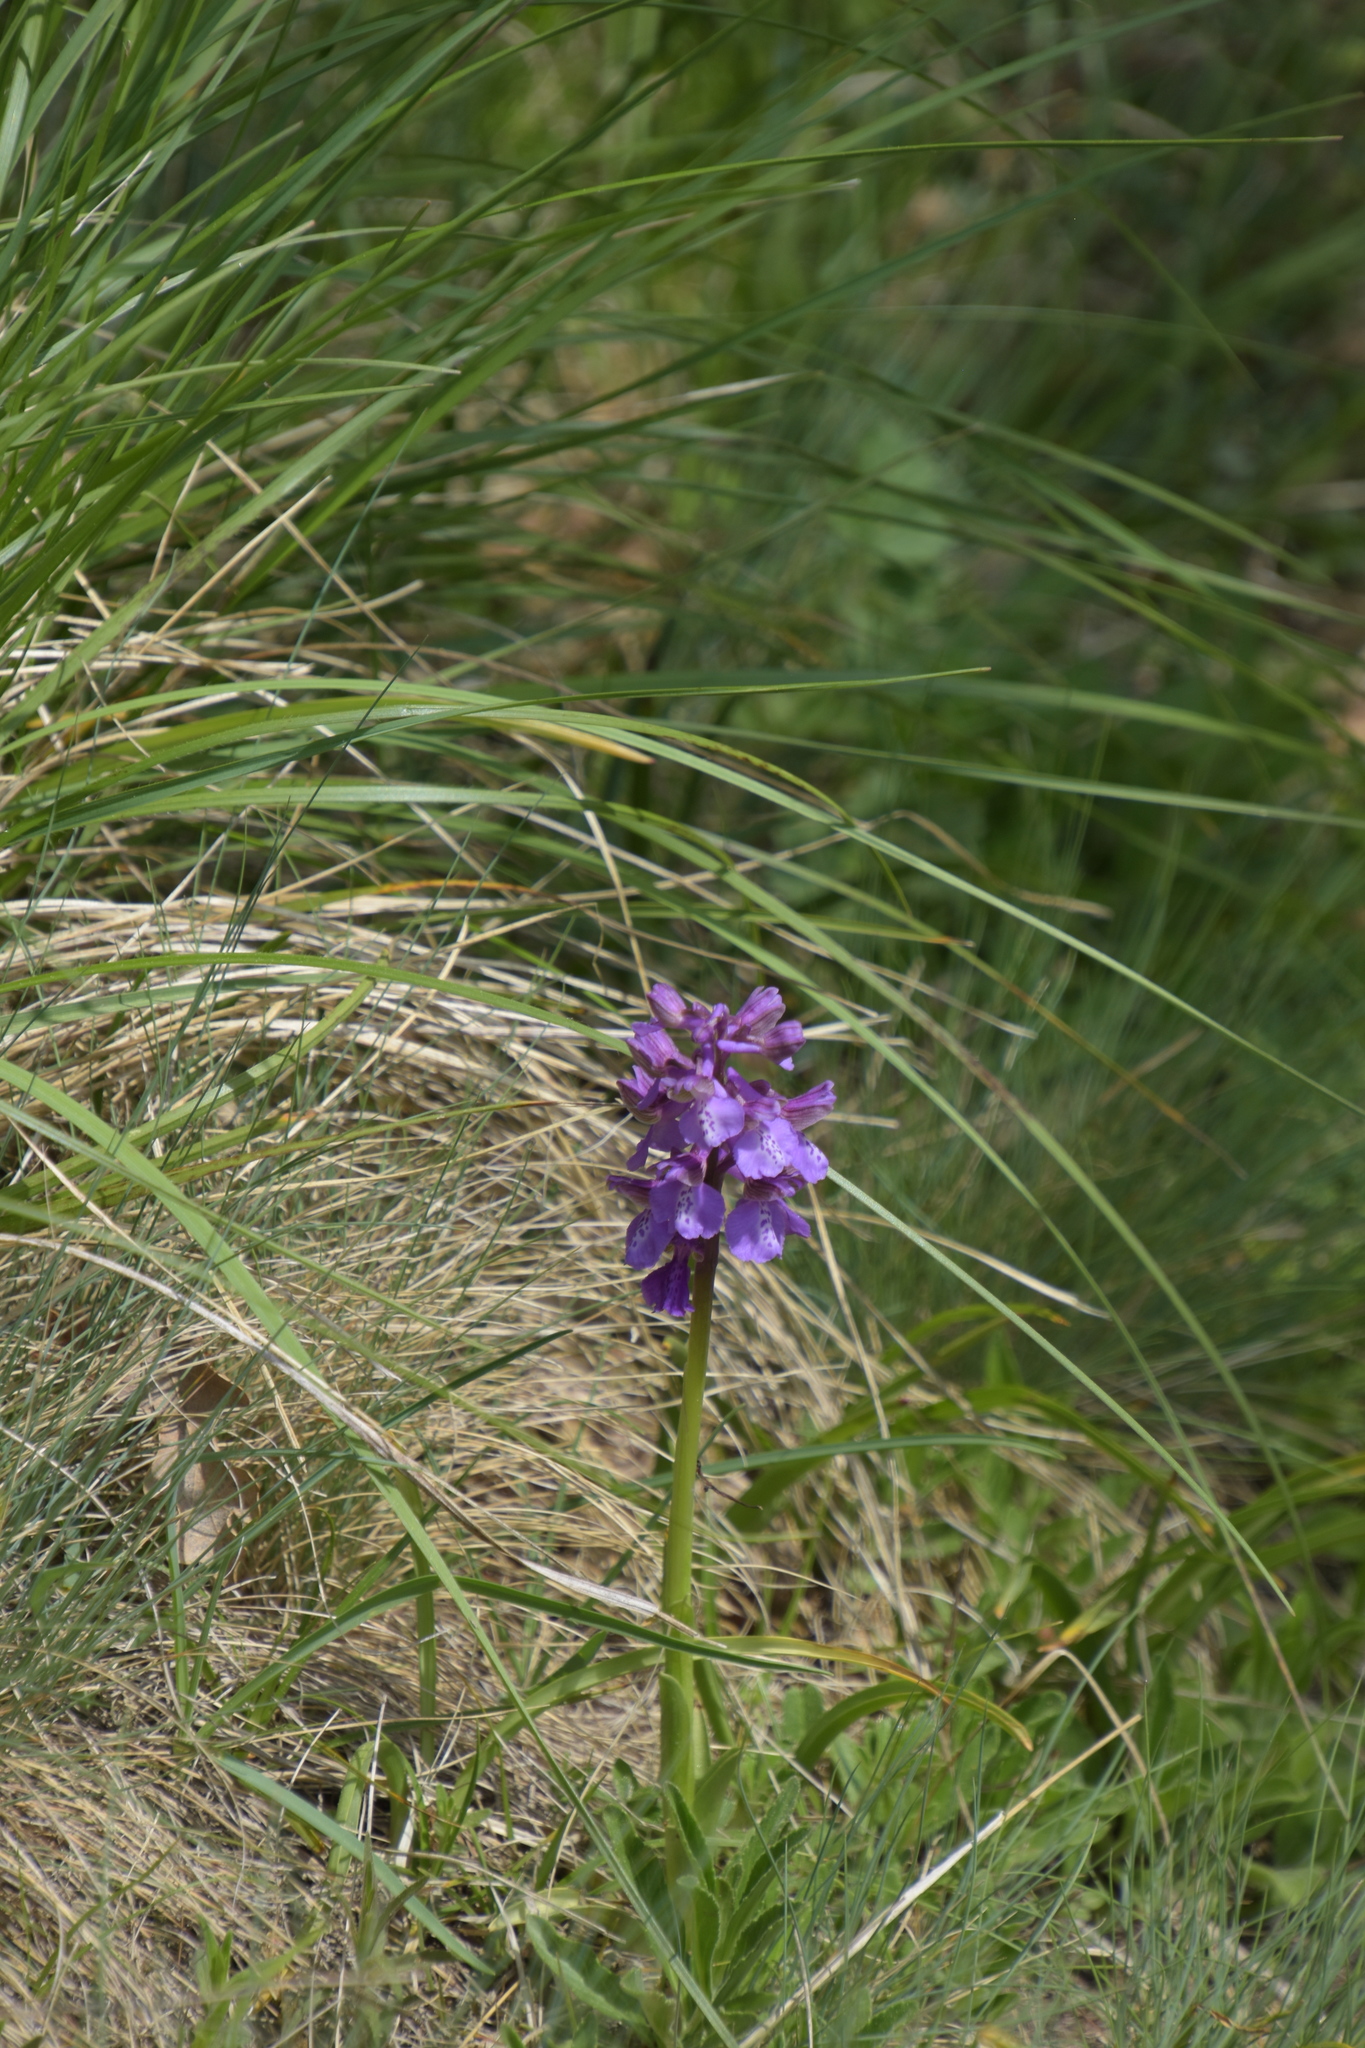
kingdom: Plantae
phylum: Tracheophyta
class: Liliopsida
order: Asparagales
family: Orchidaceae
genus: Anacamptis
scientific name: Anacamptis morio
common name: Green-winged orchid
